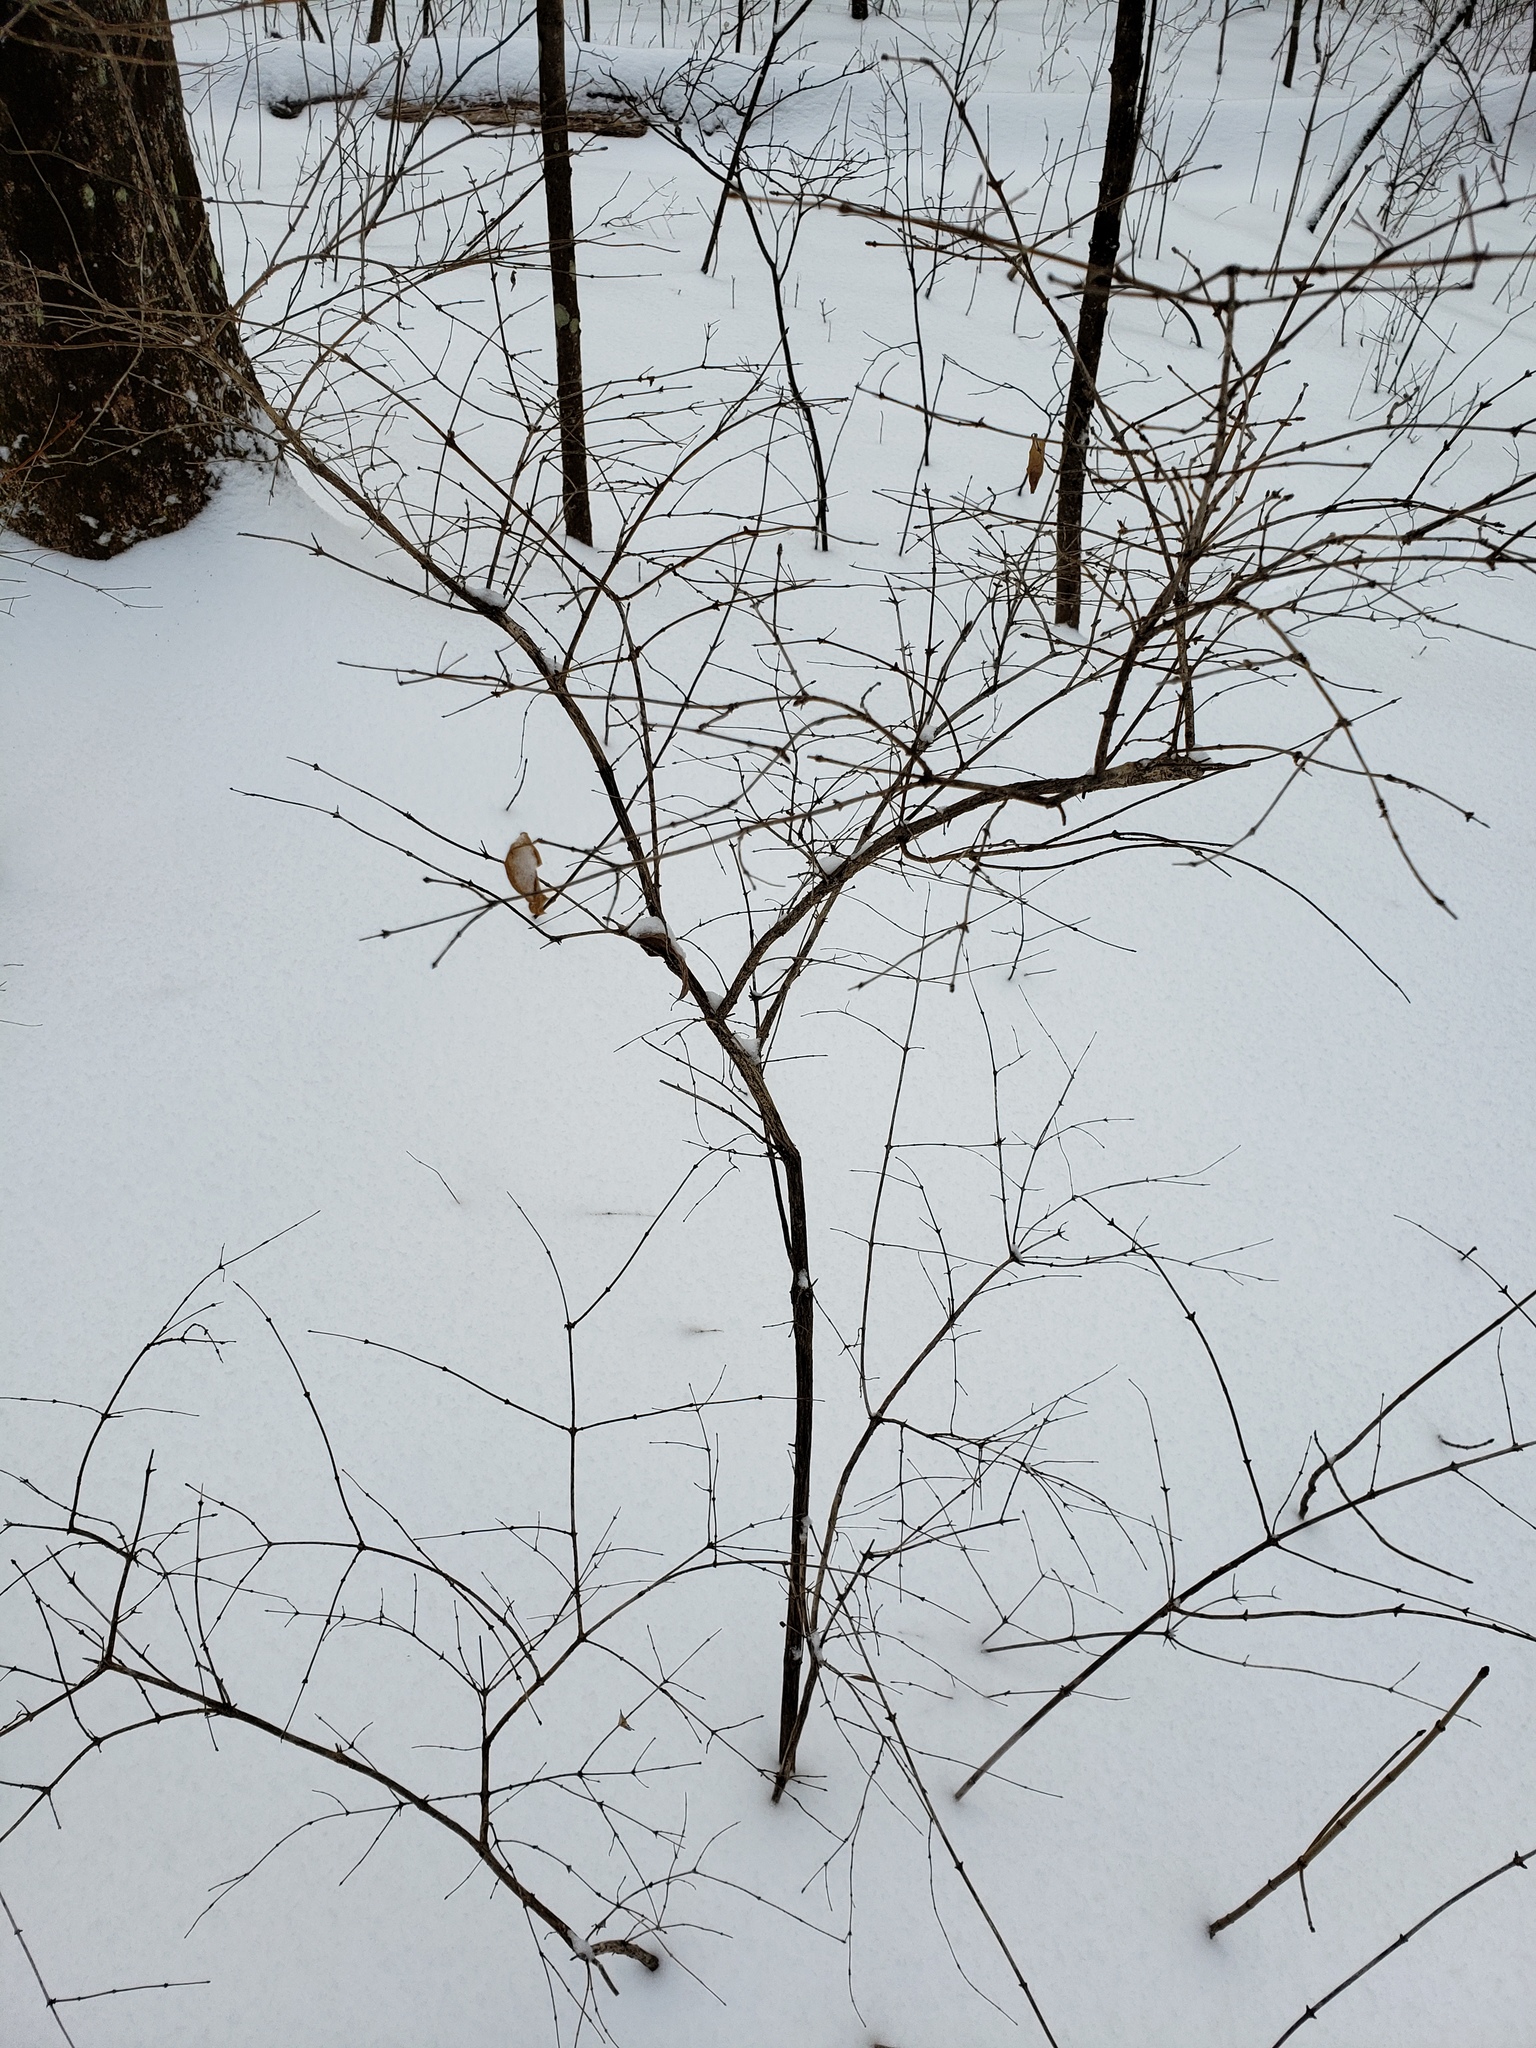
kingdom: Plantae
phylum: Tracheophyta
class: Magnoliopsida
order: Dipsacales
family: Caprifoliaceae
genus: Lonicera
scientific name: Lonicera
